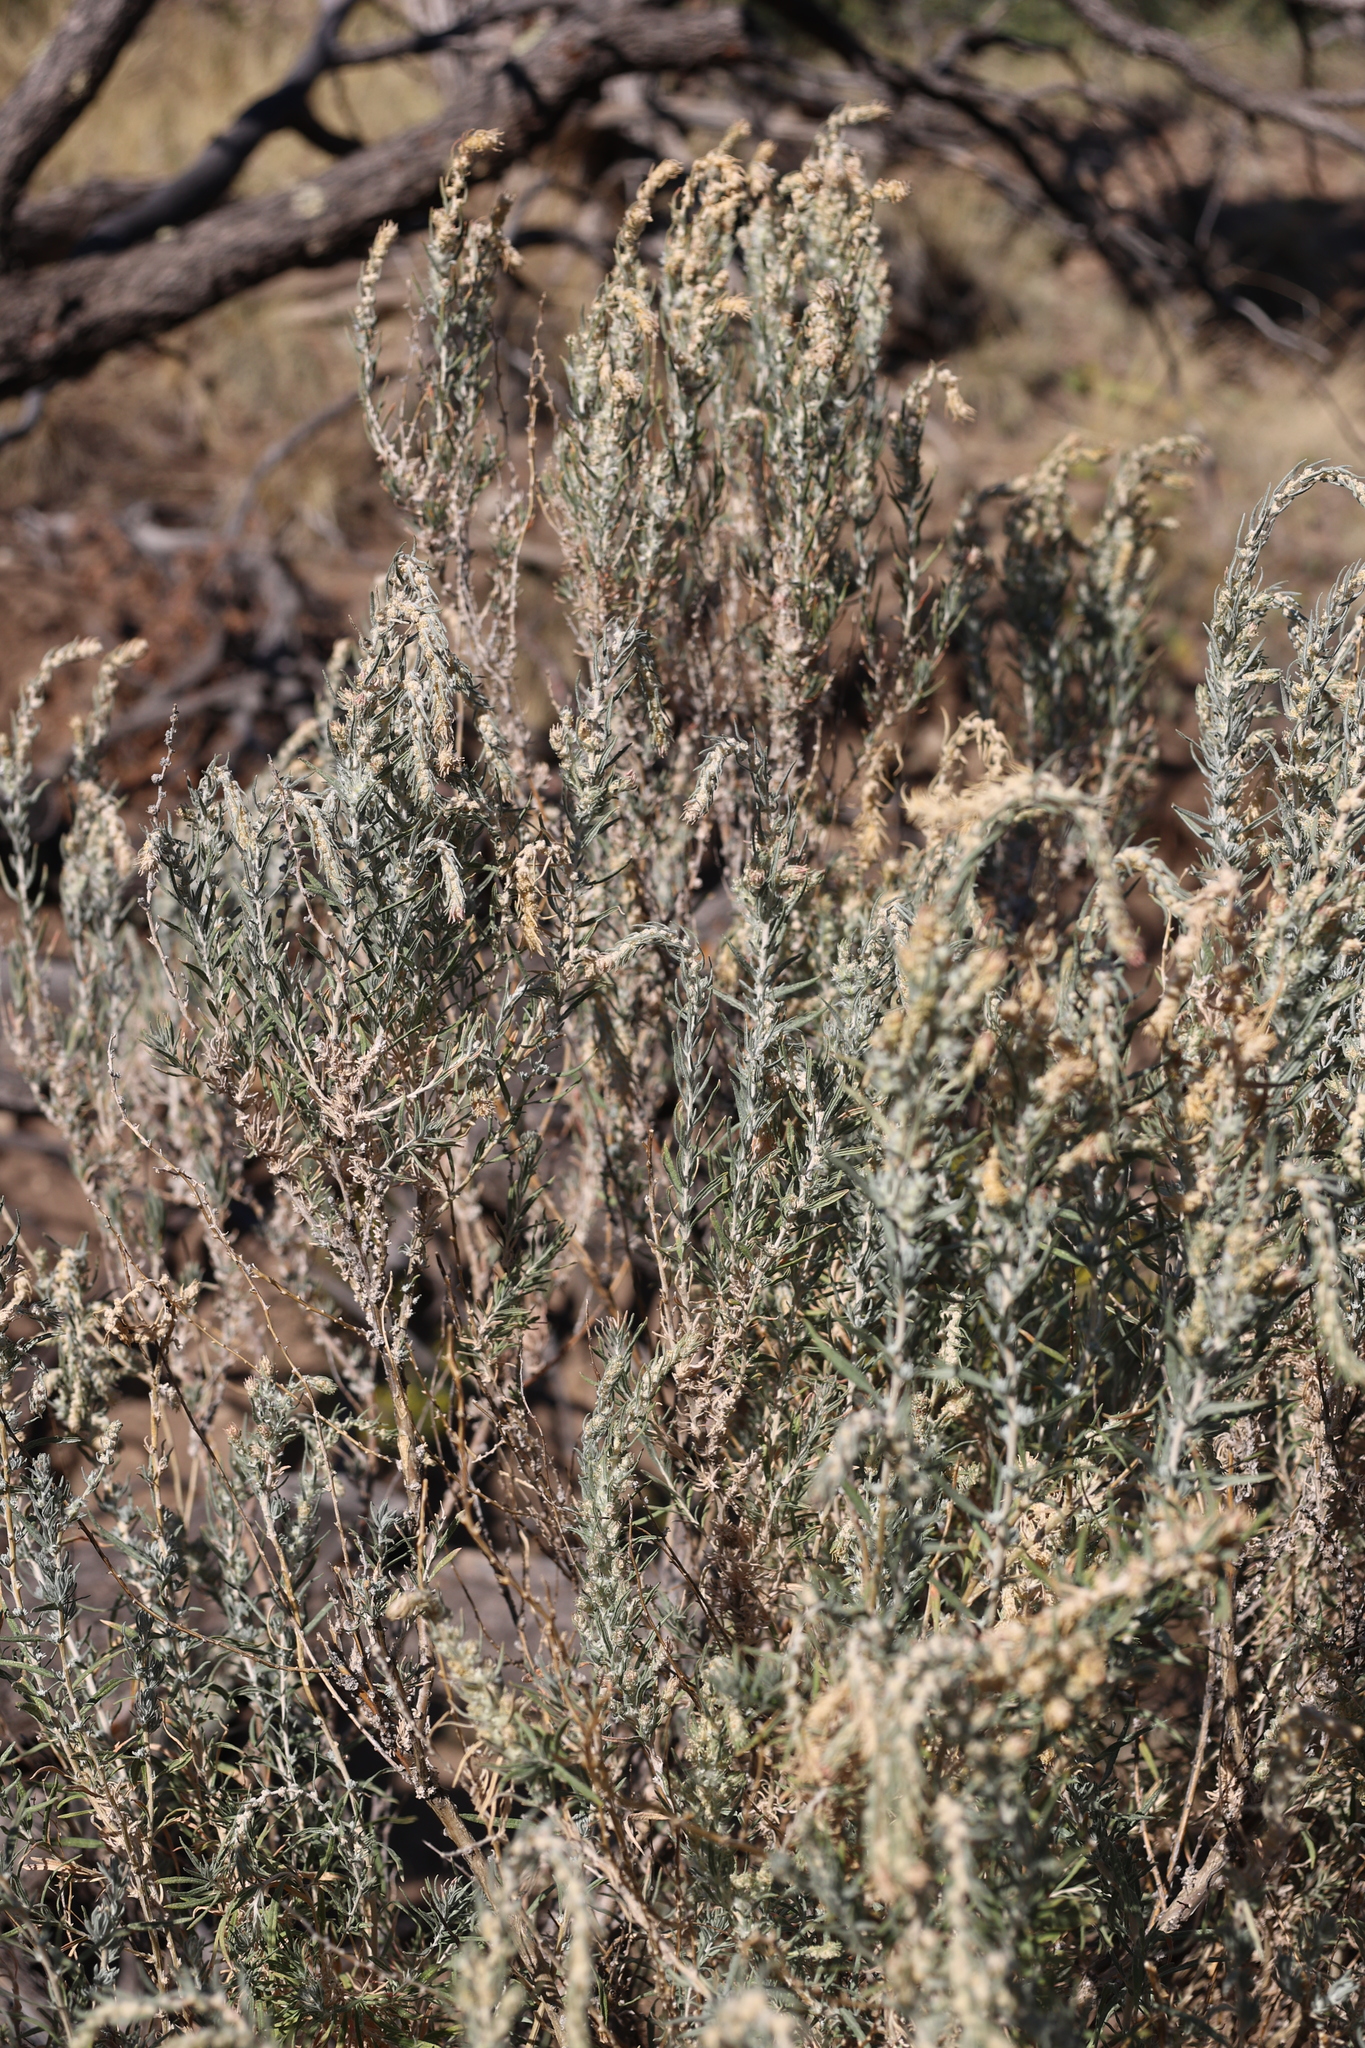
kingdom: Plantae
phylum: Tracheophyta
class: Magnoliopsida
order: Caryophyllales
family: Amaranthaceae
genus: Krascheninnikovia
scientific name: Krascheninnikovia lanata
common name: Winterfat
